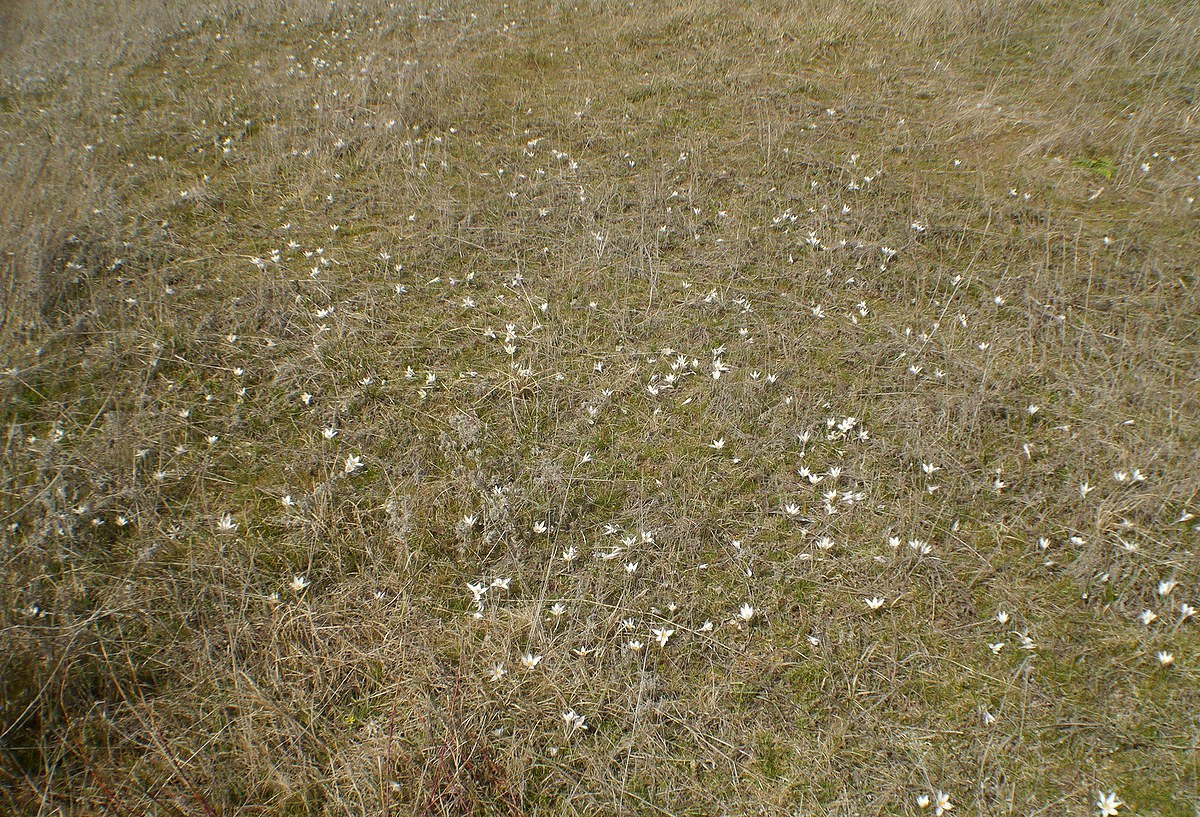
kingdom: Plantae
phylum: Tracheophyta
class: Liliopsida
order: Asparagales
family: Iridaceae
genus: Crocus
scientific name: Crocus reticulatus
